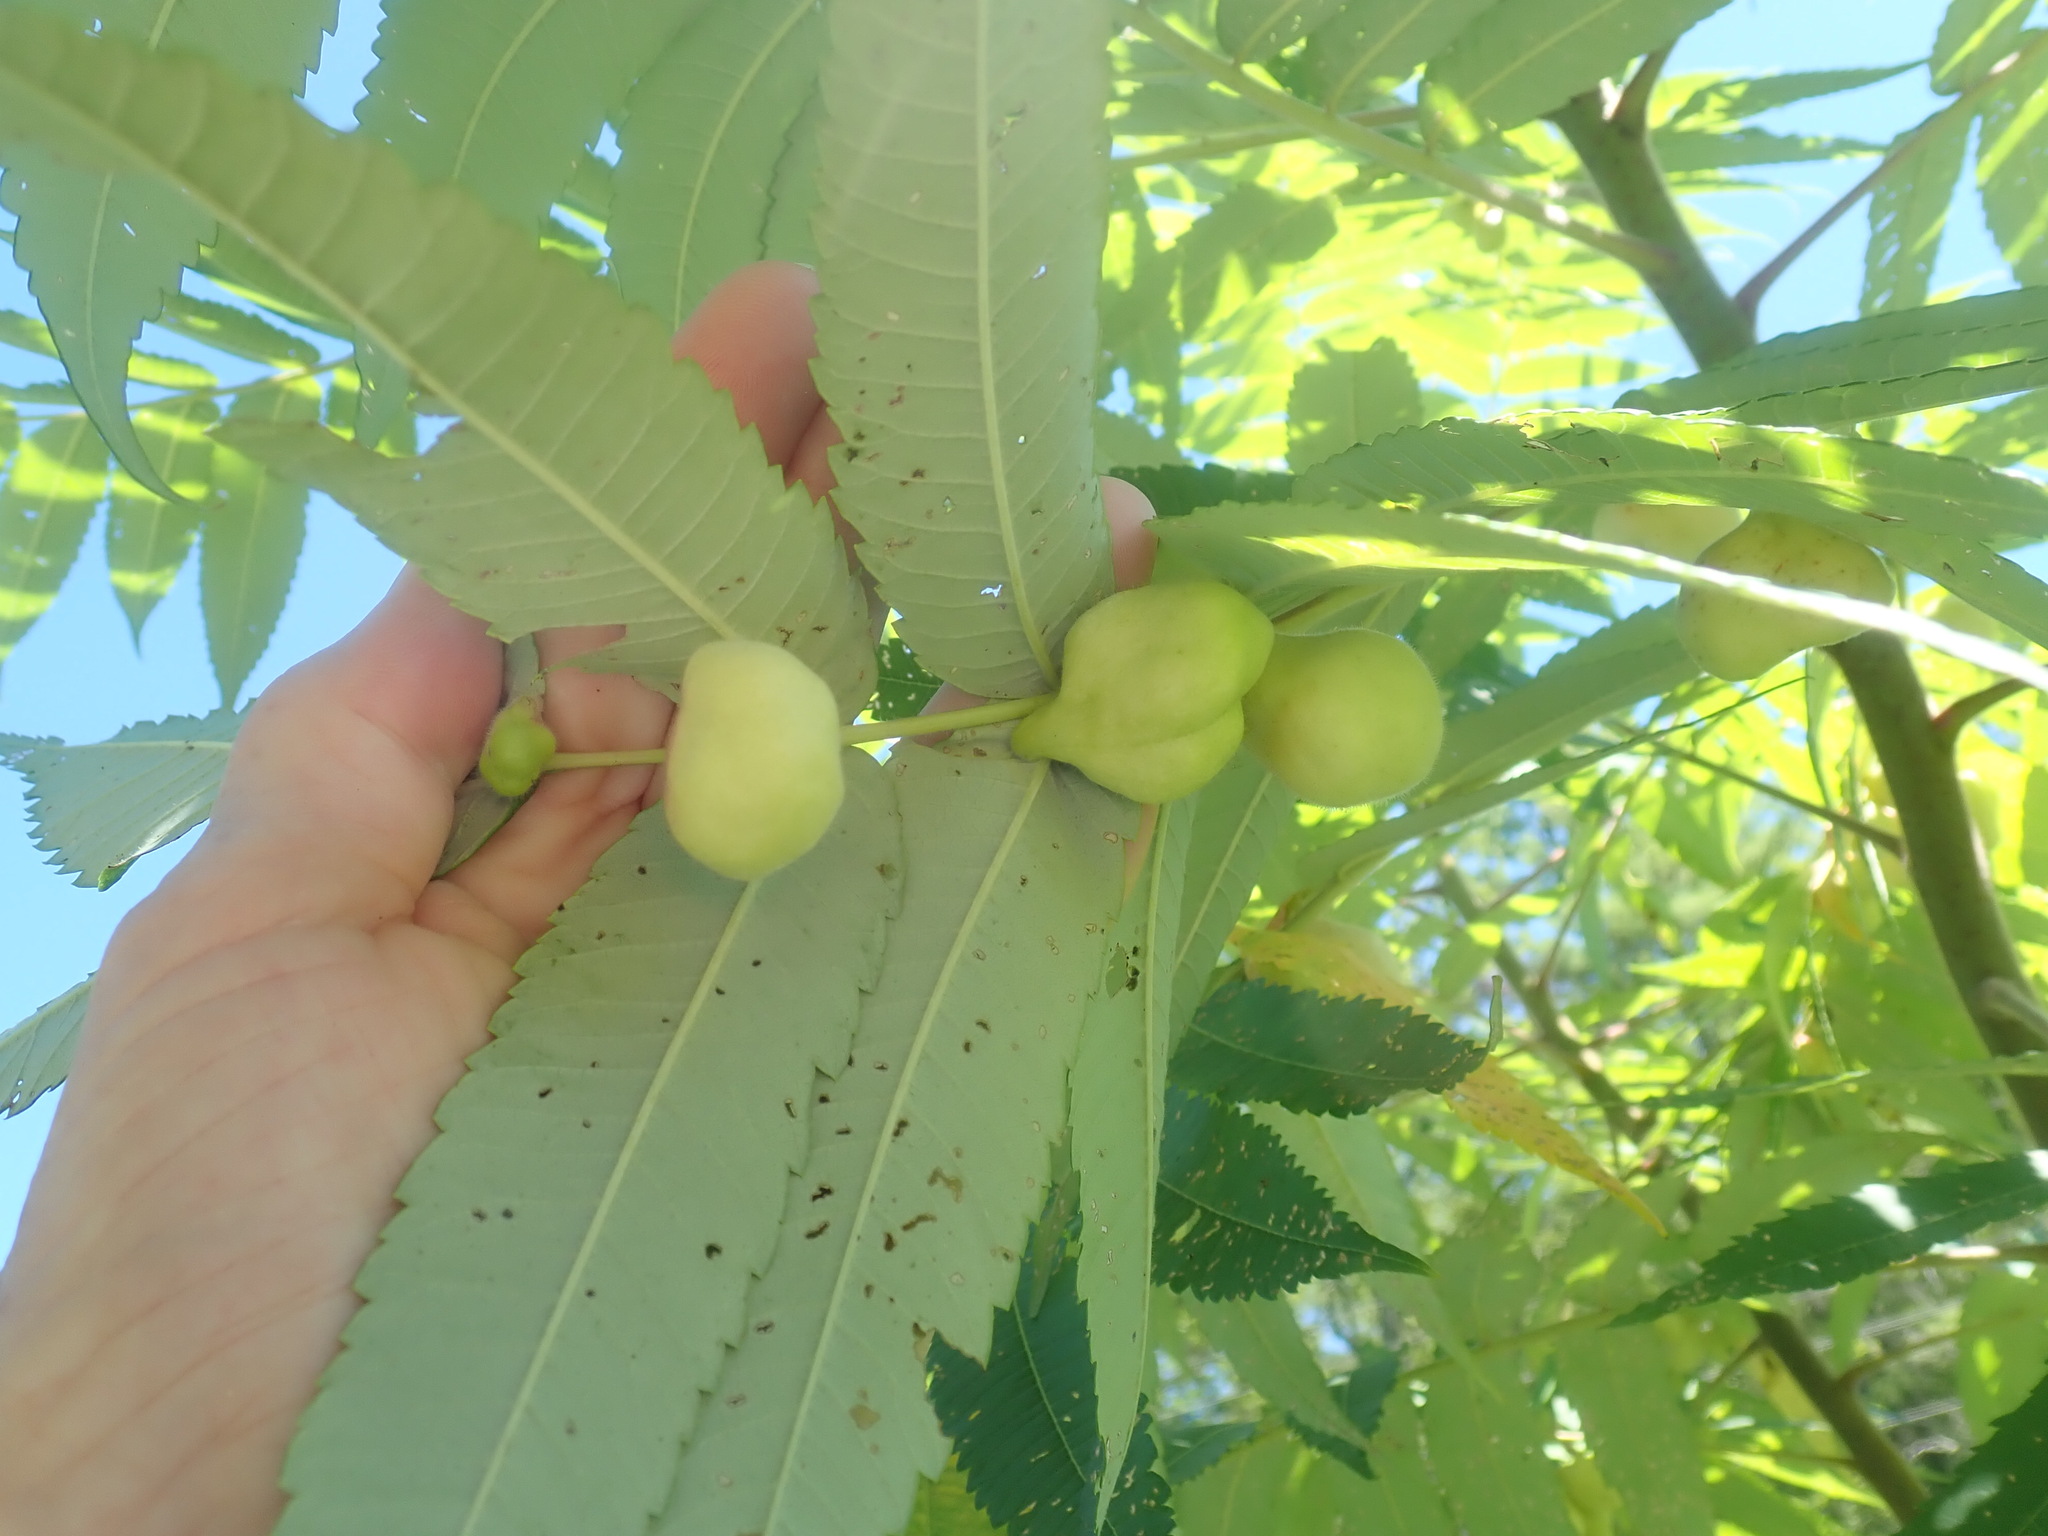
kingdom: Animalia
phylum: Arthropoda
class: Insecta
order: Hemiptera
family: Aphididae
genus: Melaphis
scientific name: Melaphis rhois
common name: Sumac gall aphid
